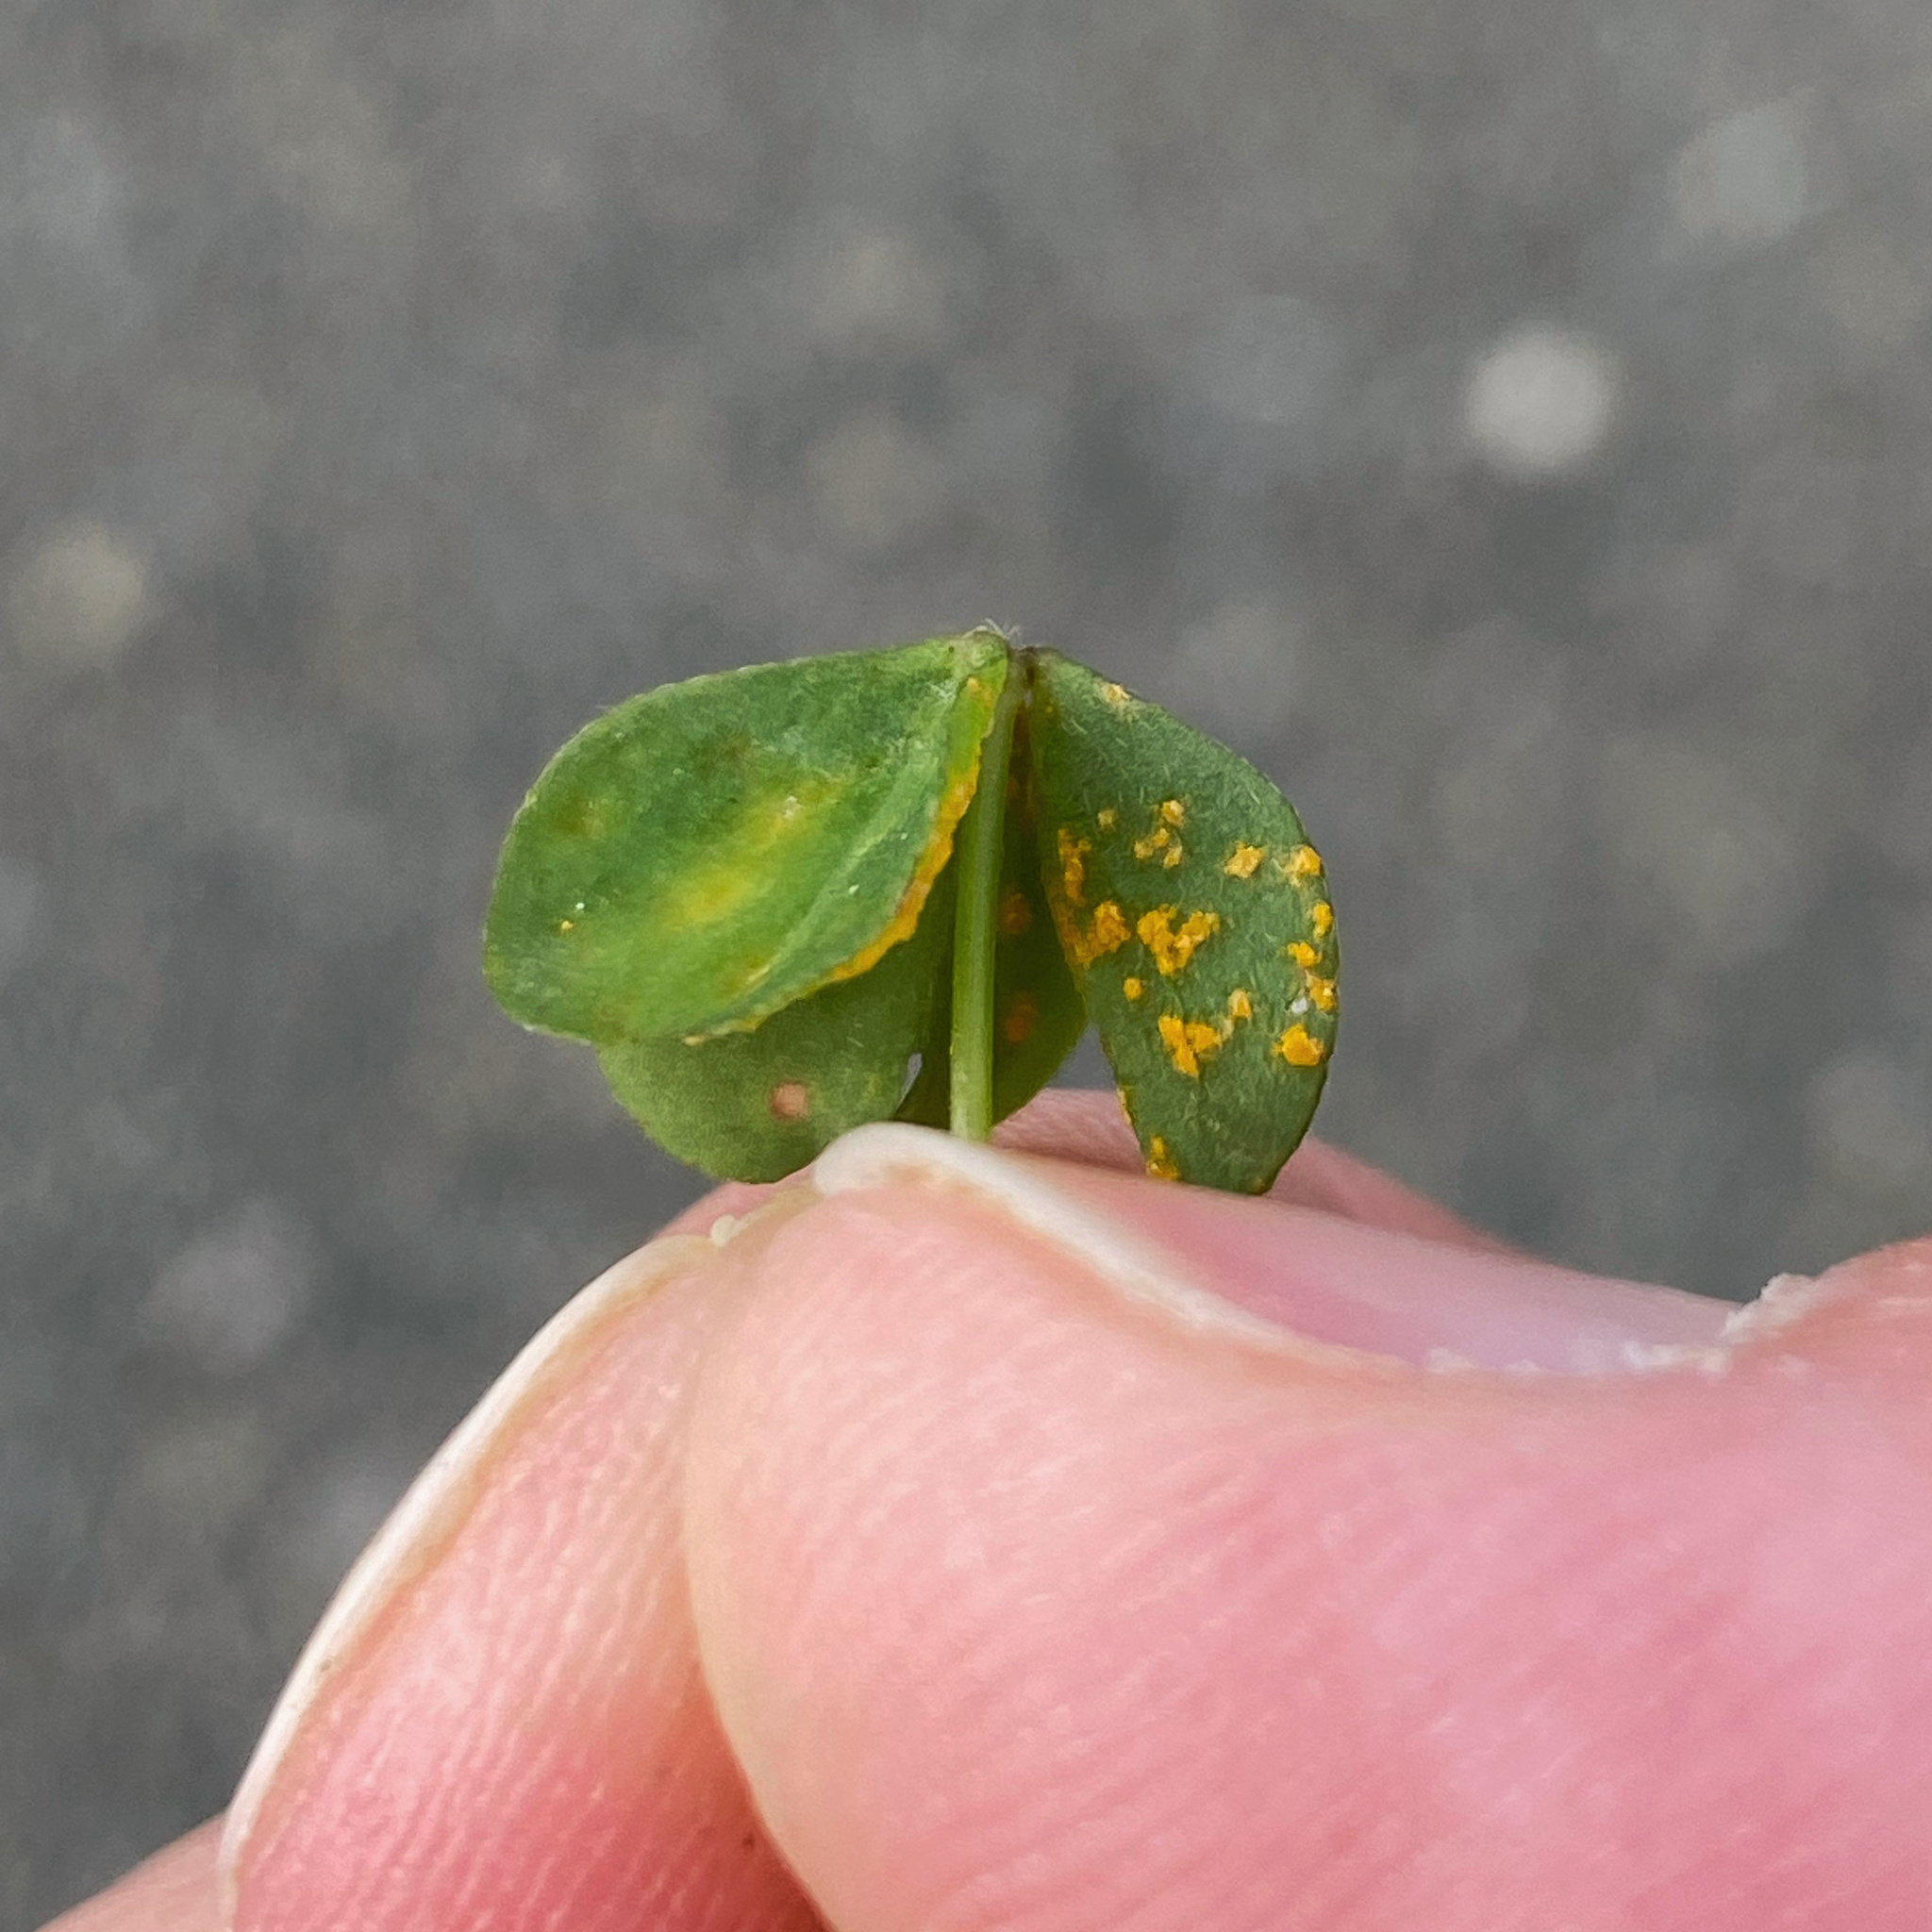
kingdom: Fungi
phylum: Basidiomycota
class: Pucciniomycetes
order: Pucciniales
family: Pucciniaceae
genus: Puccinia
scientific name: Puccinia oxalidis
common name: Oxalis rust
